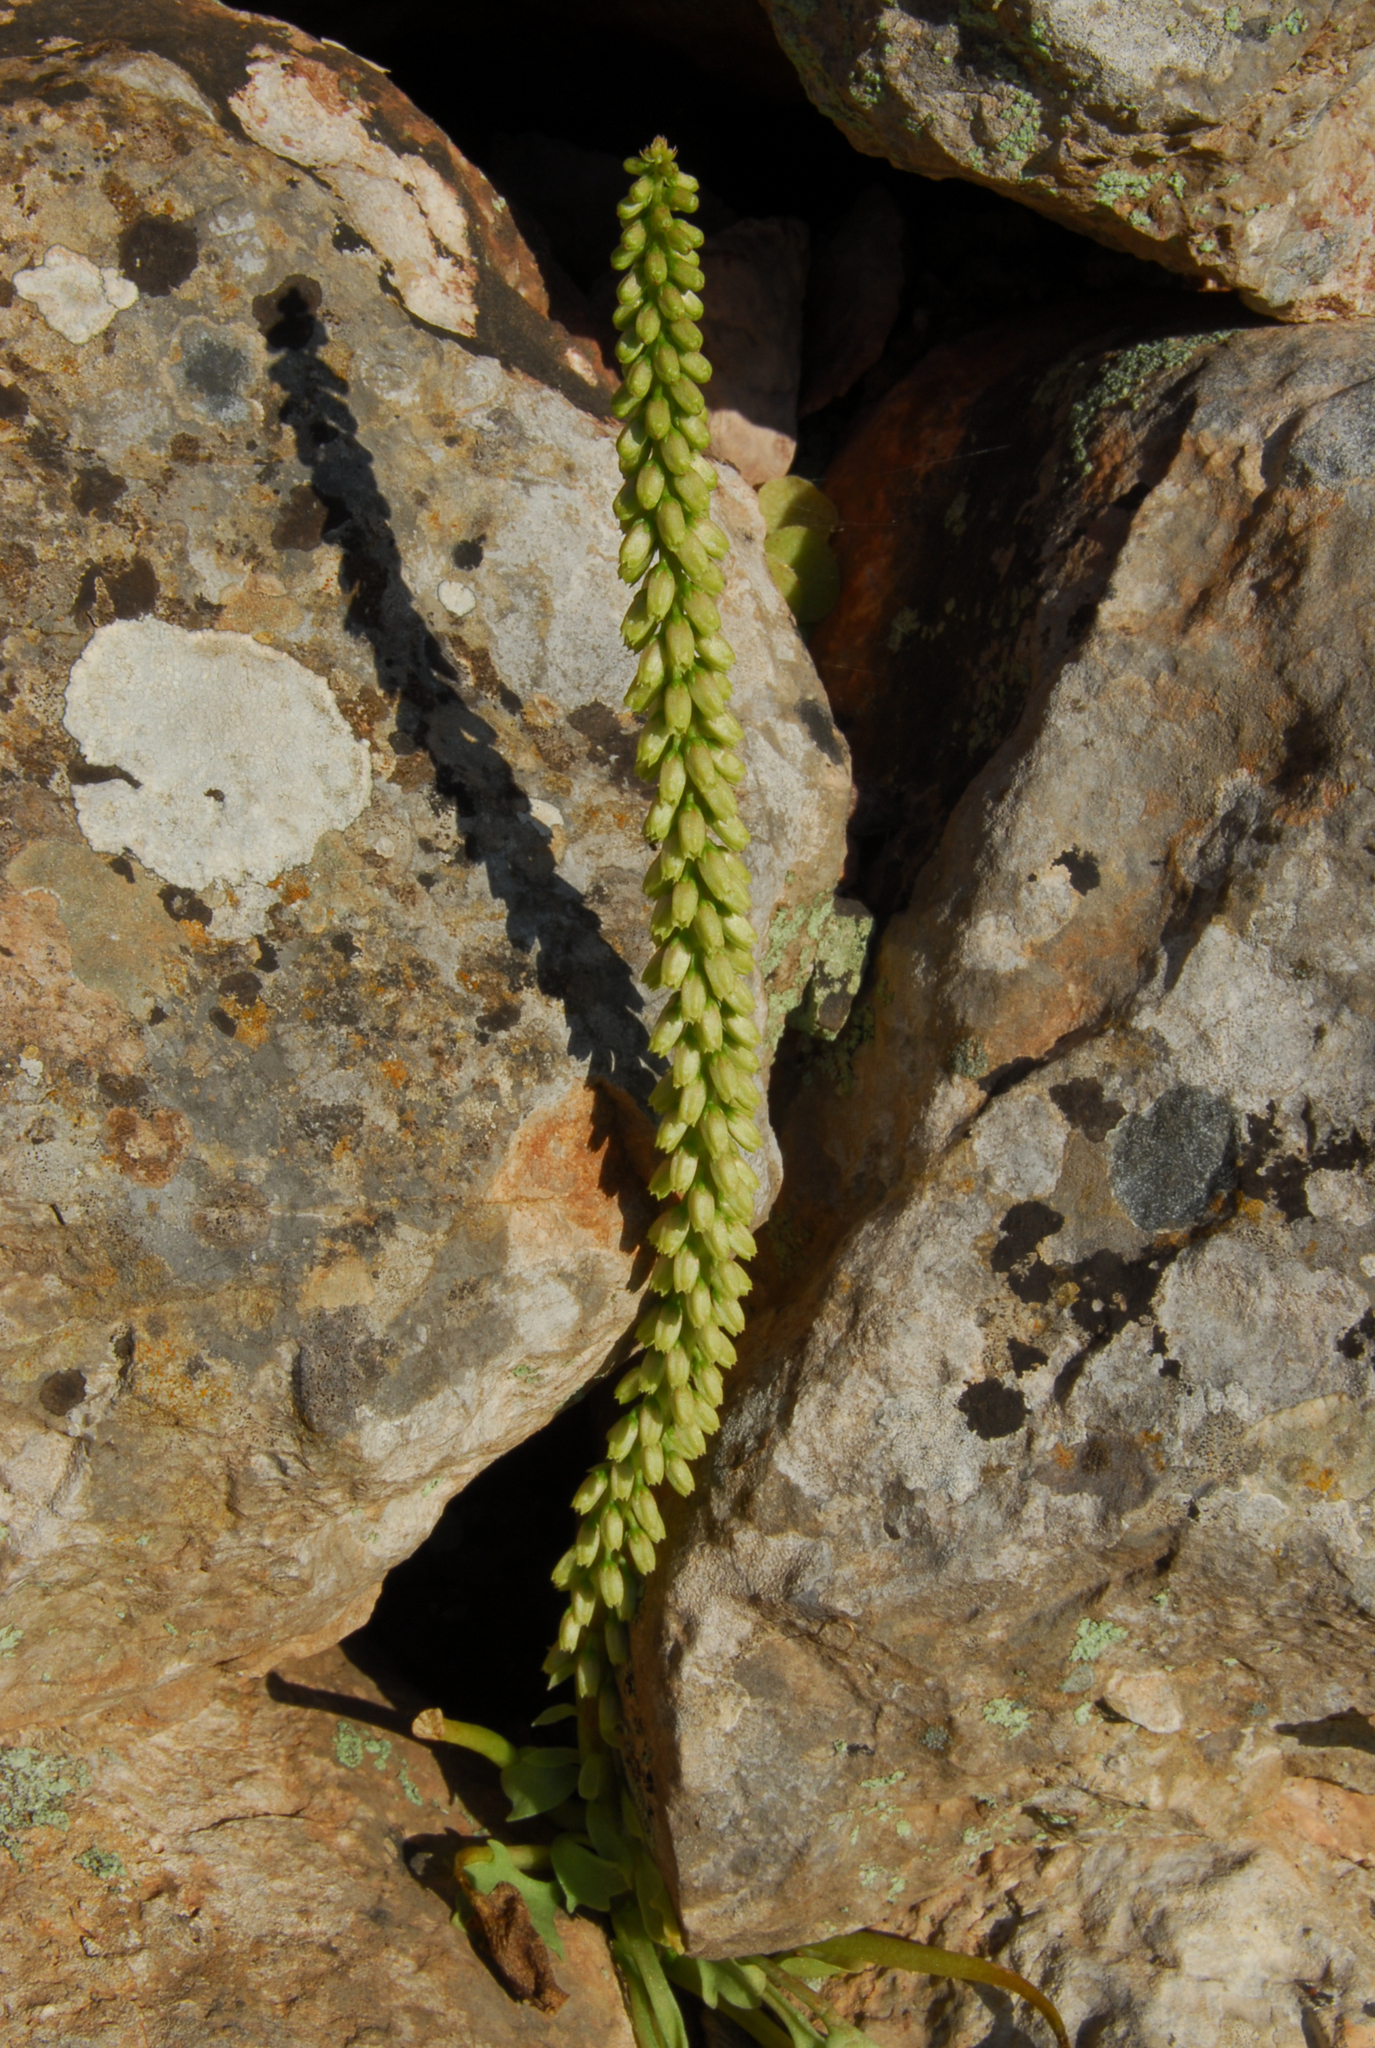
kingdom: Plantae
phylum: Tracheophyta
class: Magnoliopsida
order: Saxifragales
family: Crassulaceae
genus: Umbilicus
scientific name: Umbilicus rupestris
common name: Navelwort
